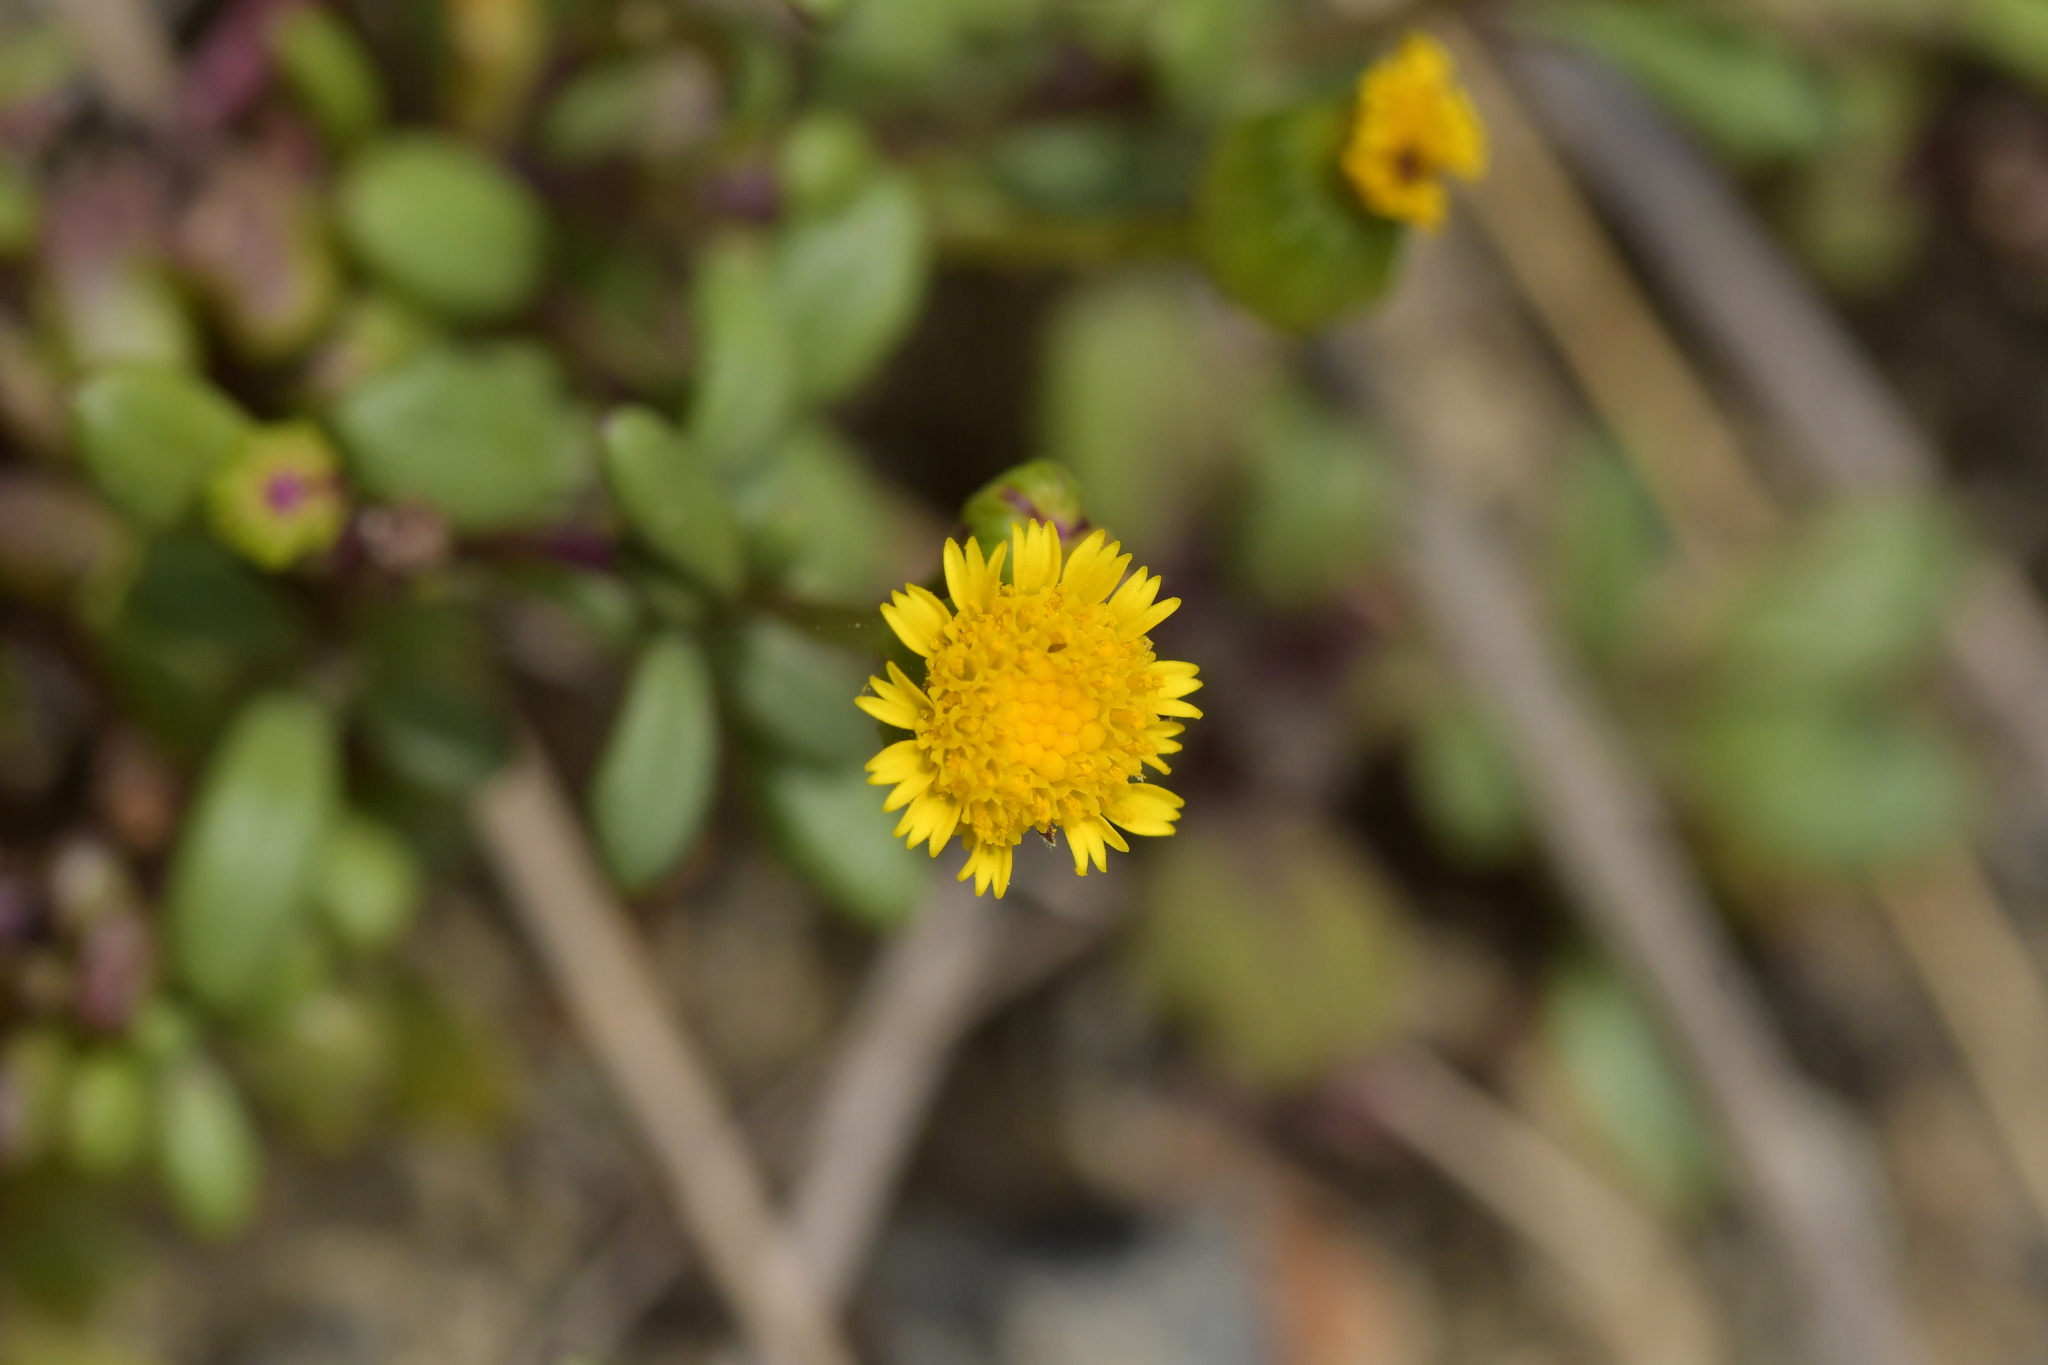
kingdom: Plantae
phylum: Tracheophyta
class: Magnoliopsida
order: Asterales
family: Asteraceae
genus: Senecio
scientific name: Senecio lautus
